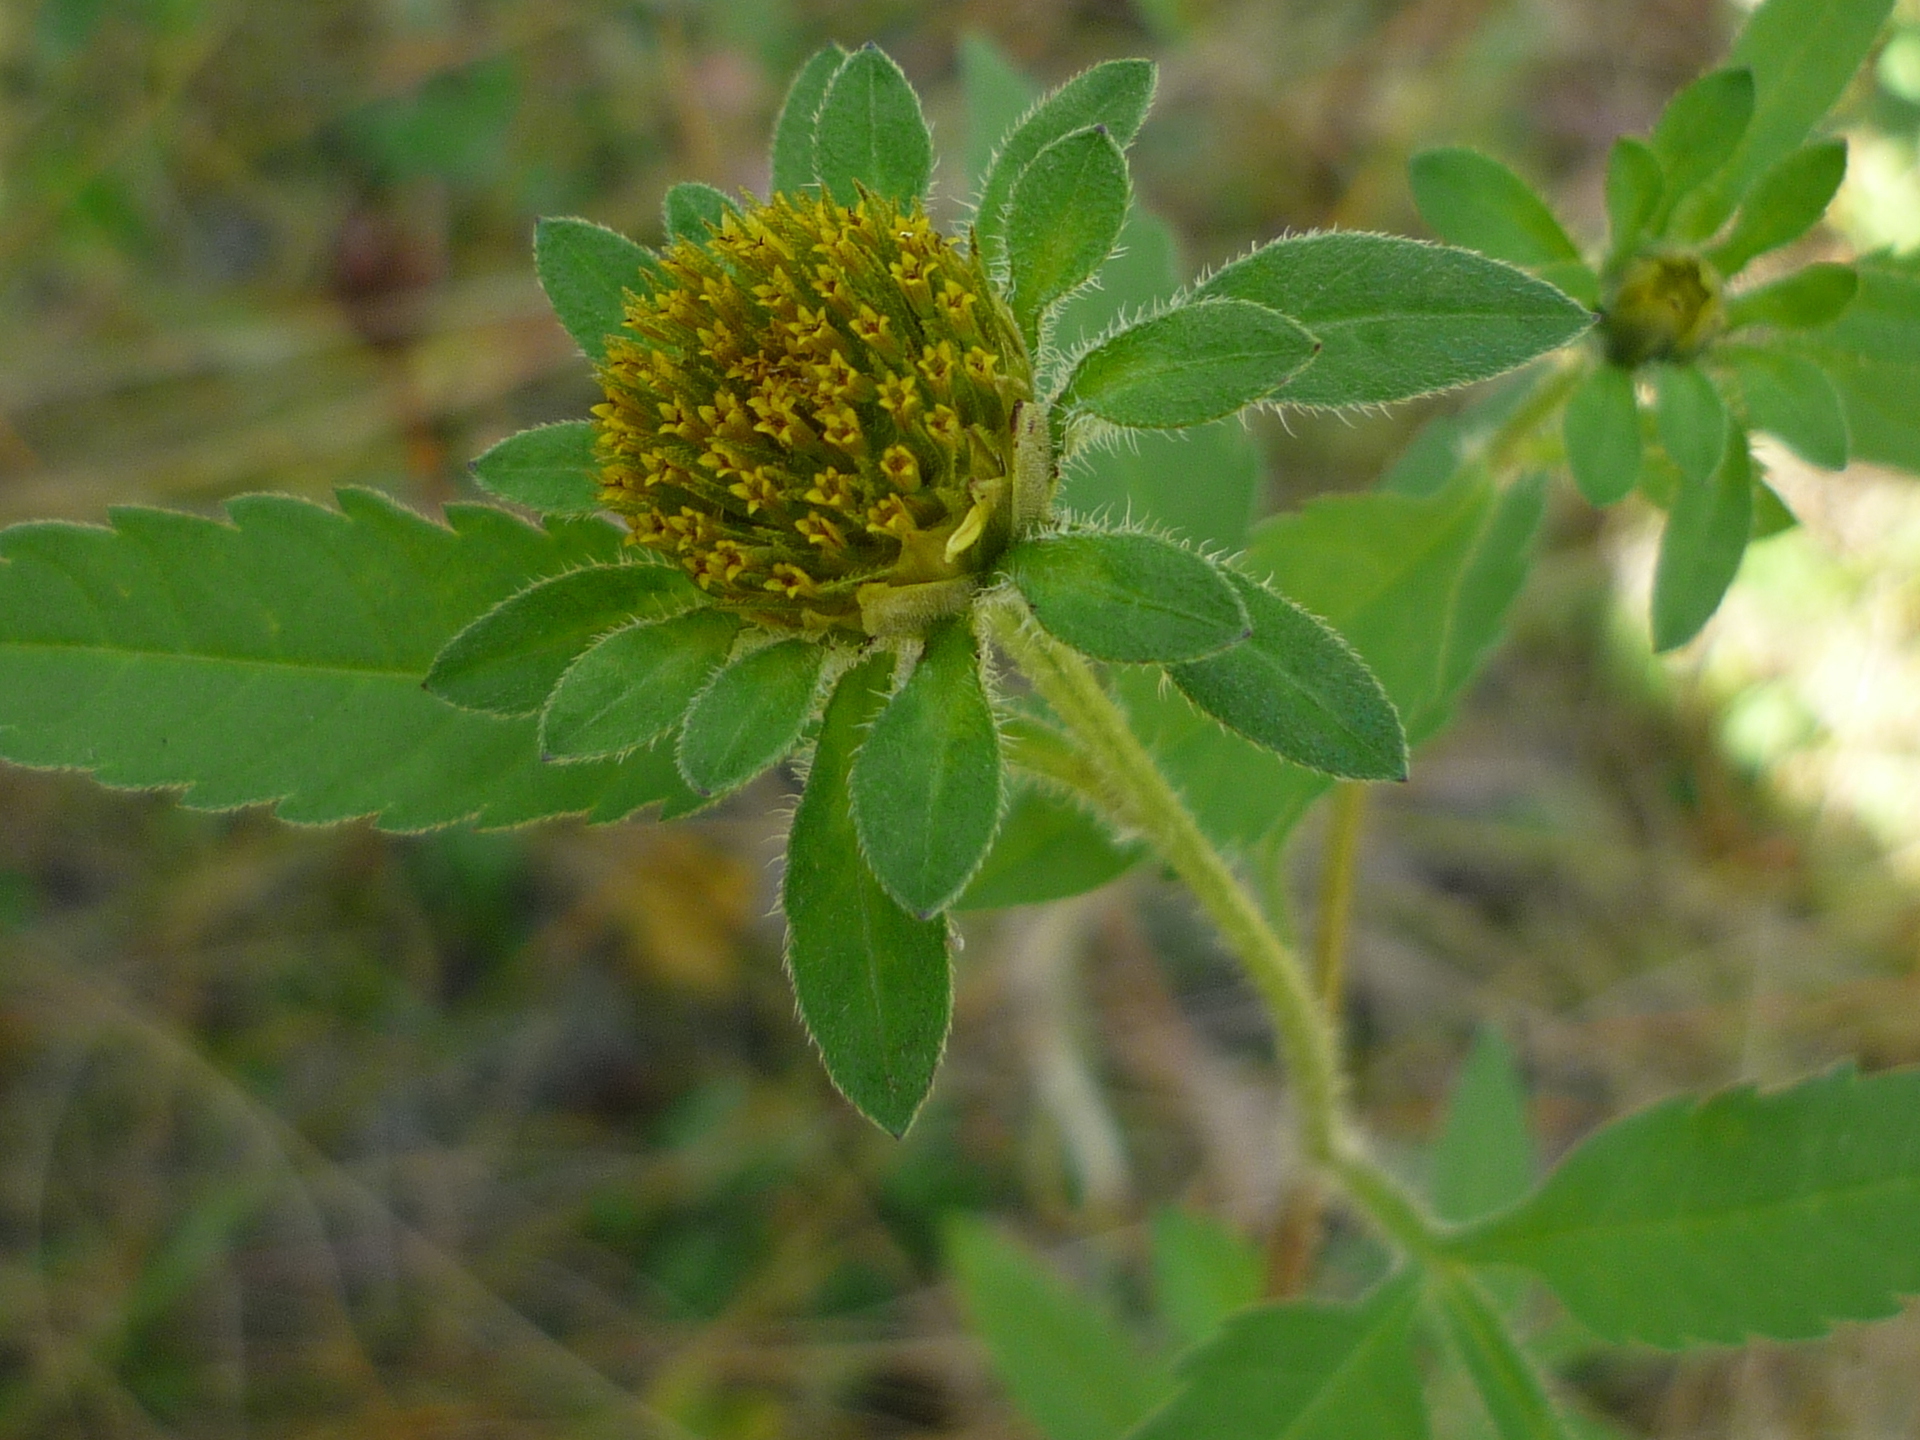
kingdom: Plantae
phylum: Tracheophyta
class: Magnoliopsida
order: Asterales
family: Asteraceae
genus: Bidens
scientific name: Bidens vulgata
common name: Tall beggarticks
